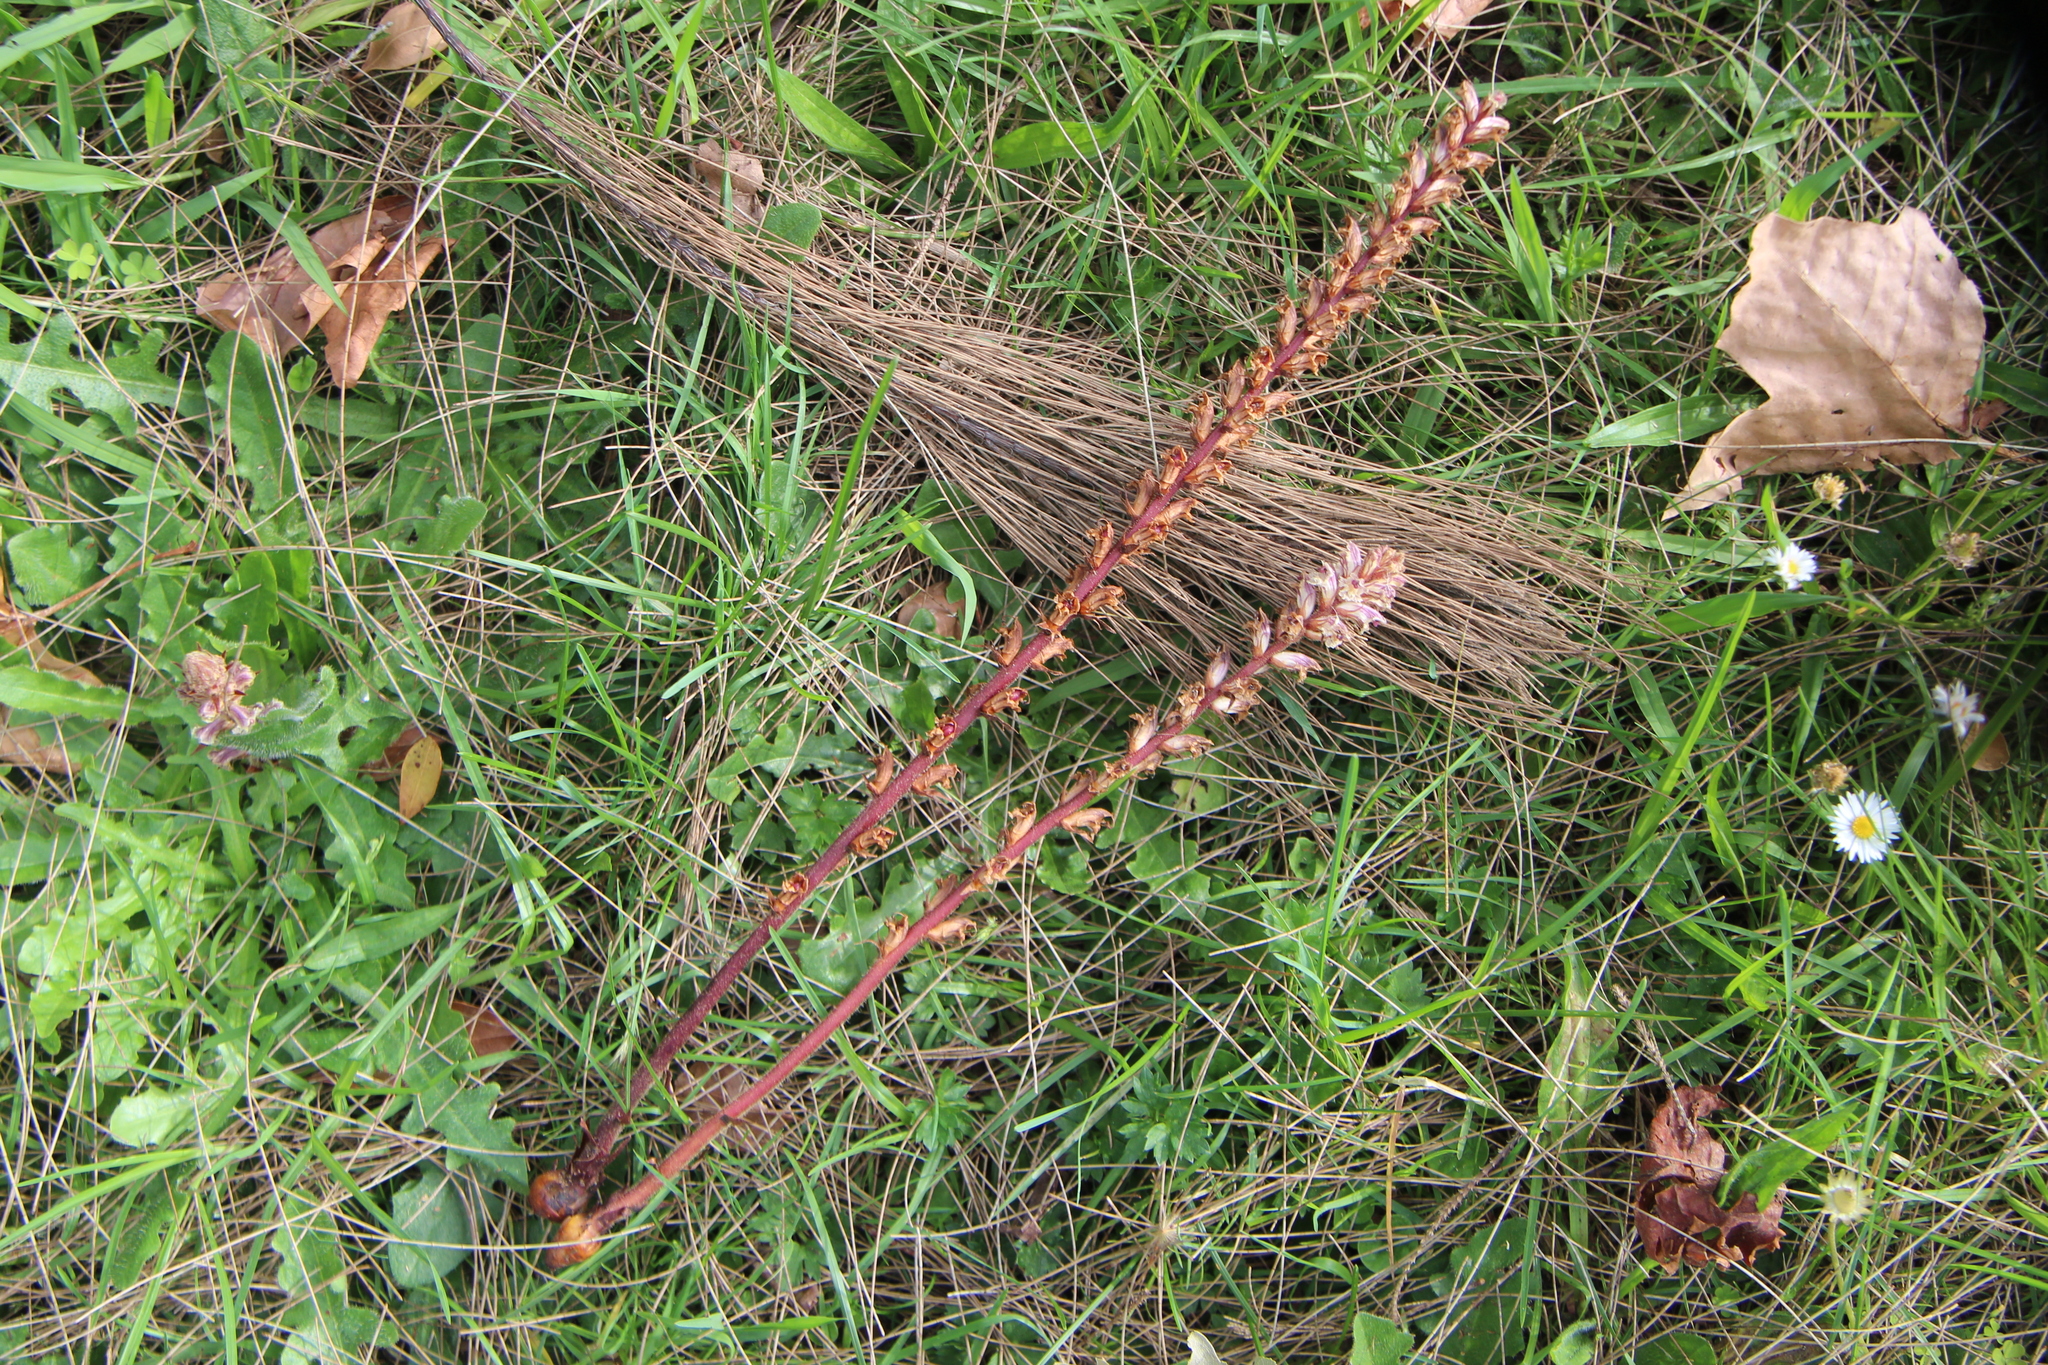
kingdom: Plantae
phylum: Tracheophyta
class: Magnoliopsida
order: Lamiales
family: Orobanchaceae
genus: Orobanche
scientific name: Orobanche minor
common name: Common broomrape
